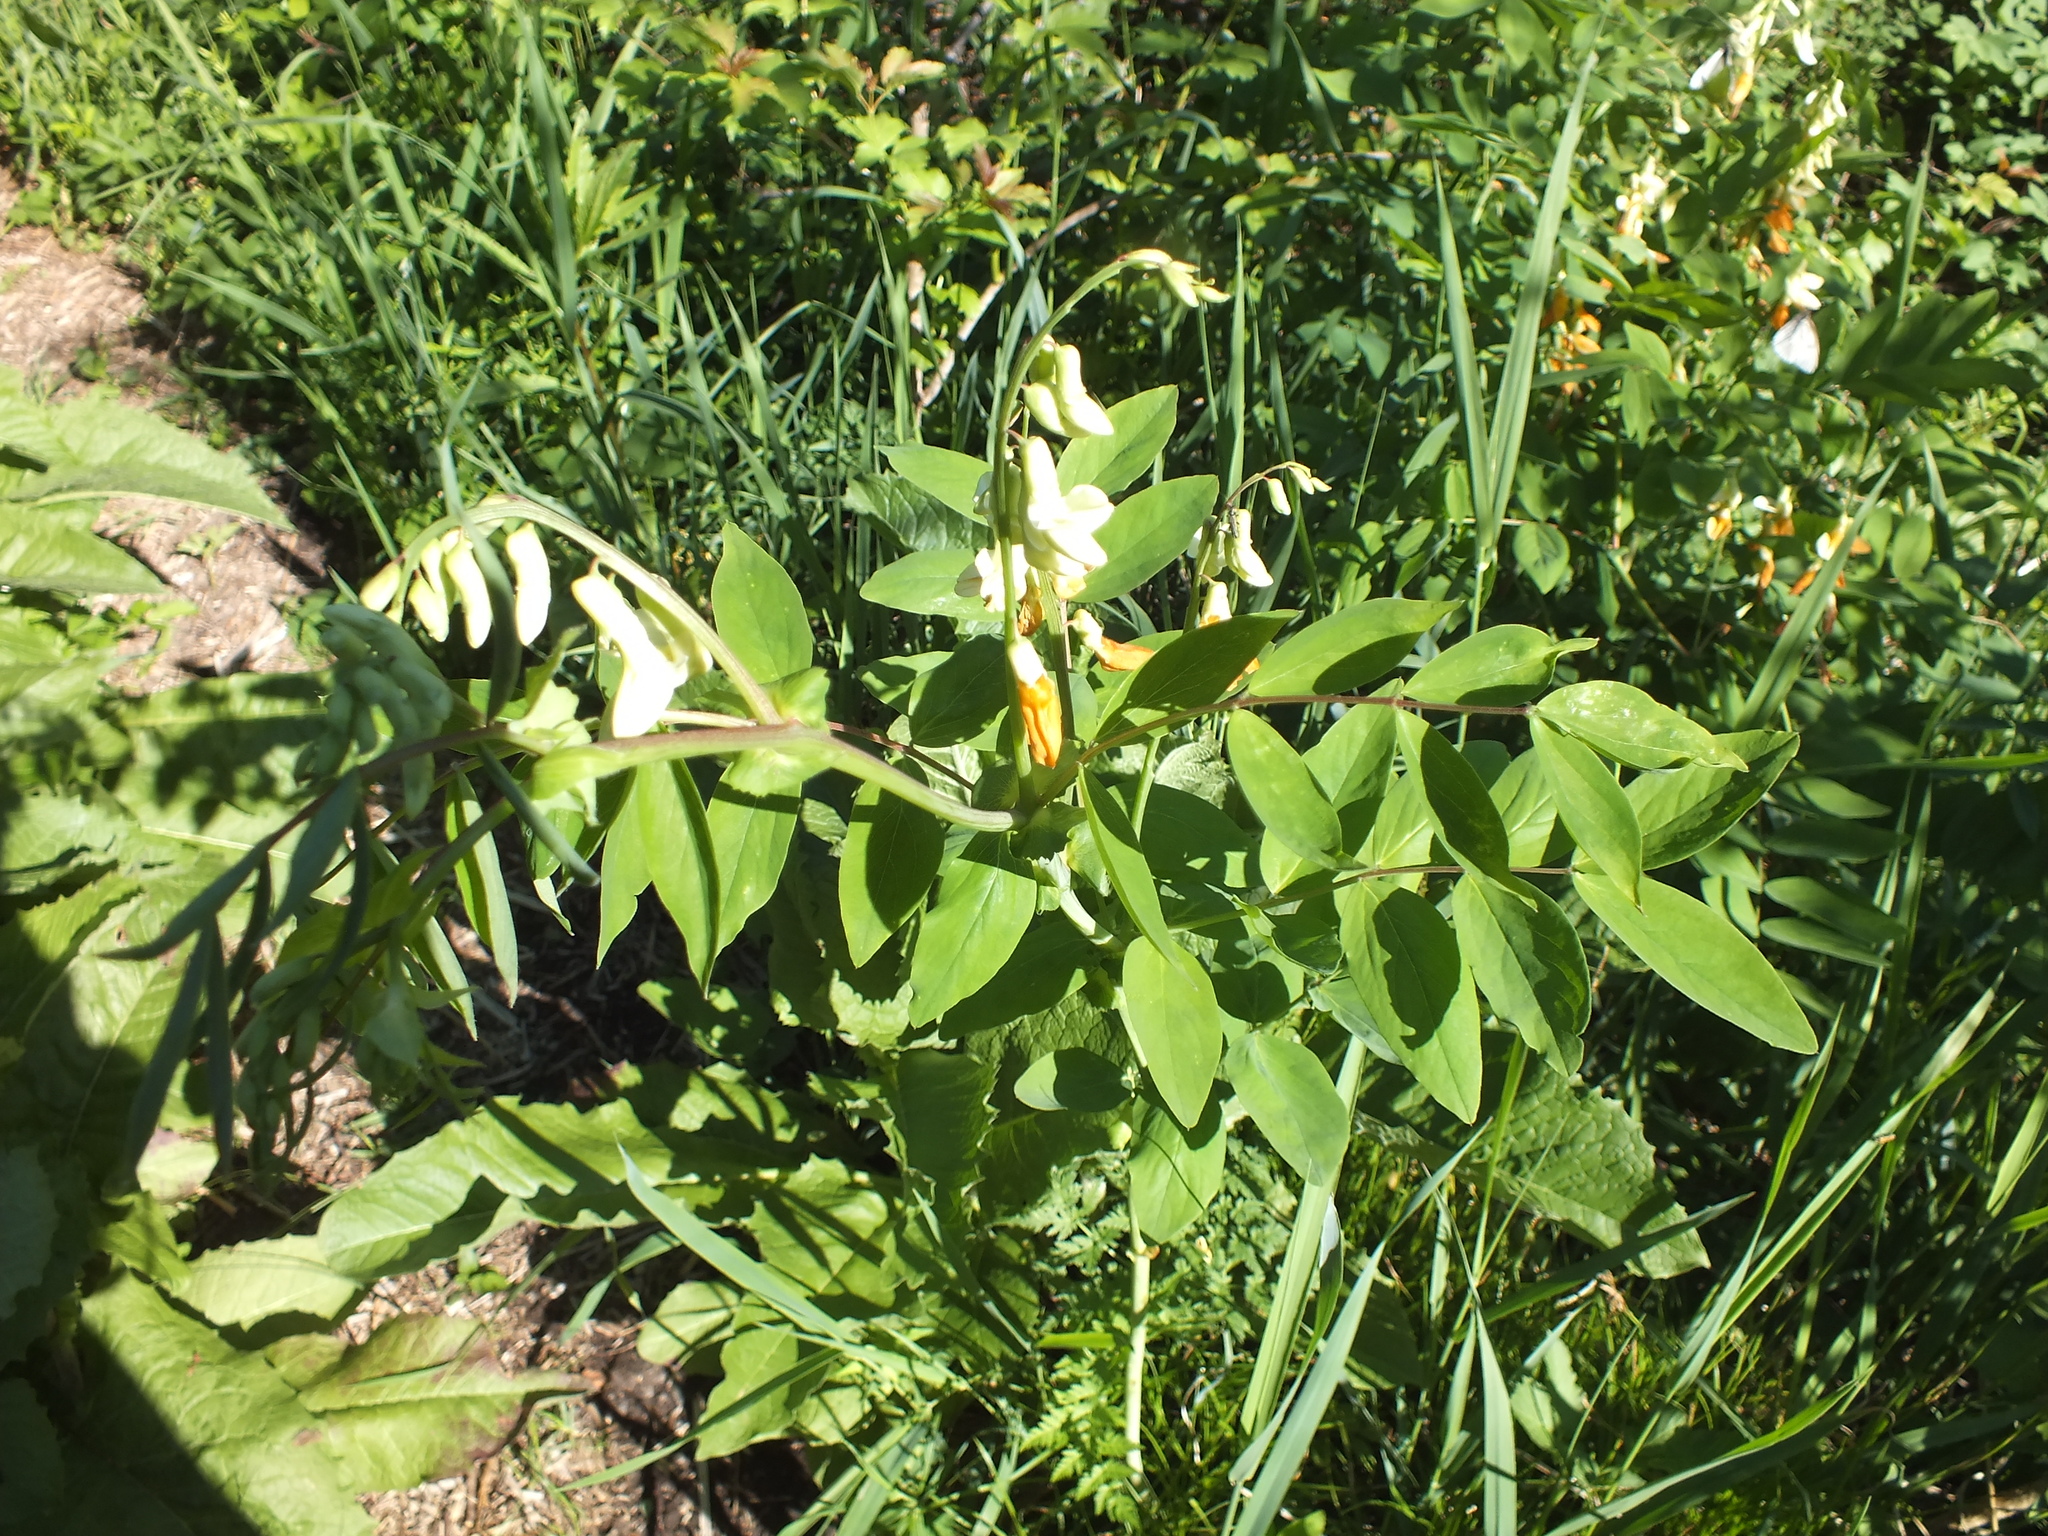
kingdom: Plantae
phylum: Tracheophyta
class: Magnoliopsida
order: Fabales
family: Fabaceae
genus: Lathyrus
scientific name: Lathyrus gmelinii
